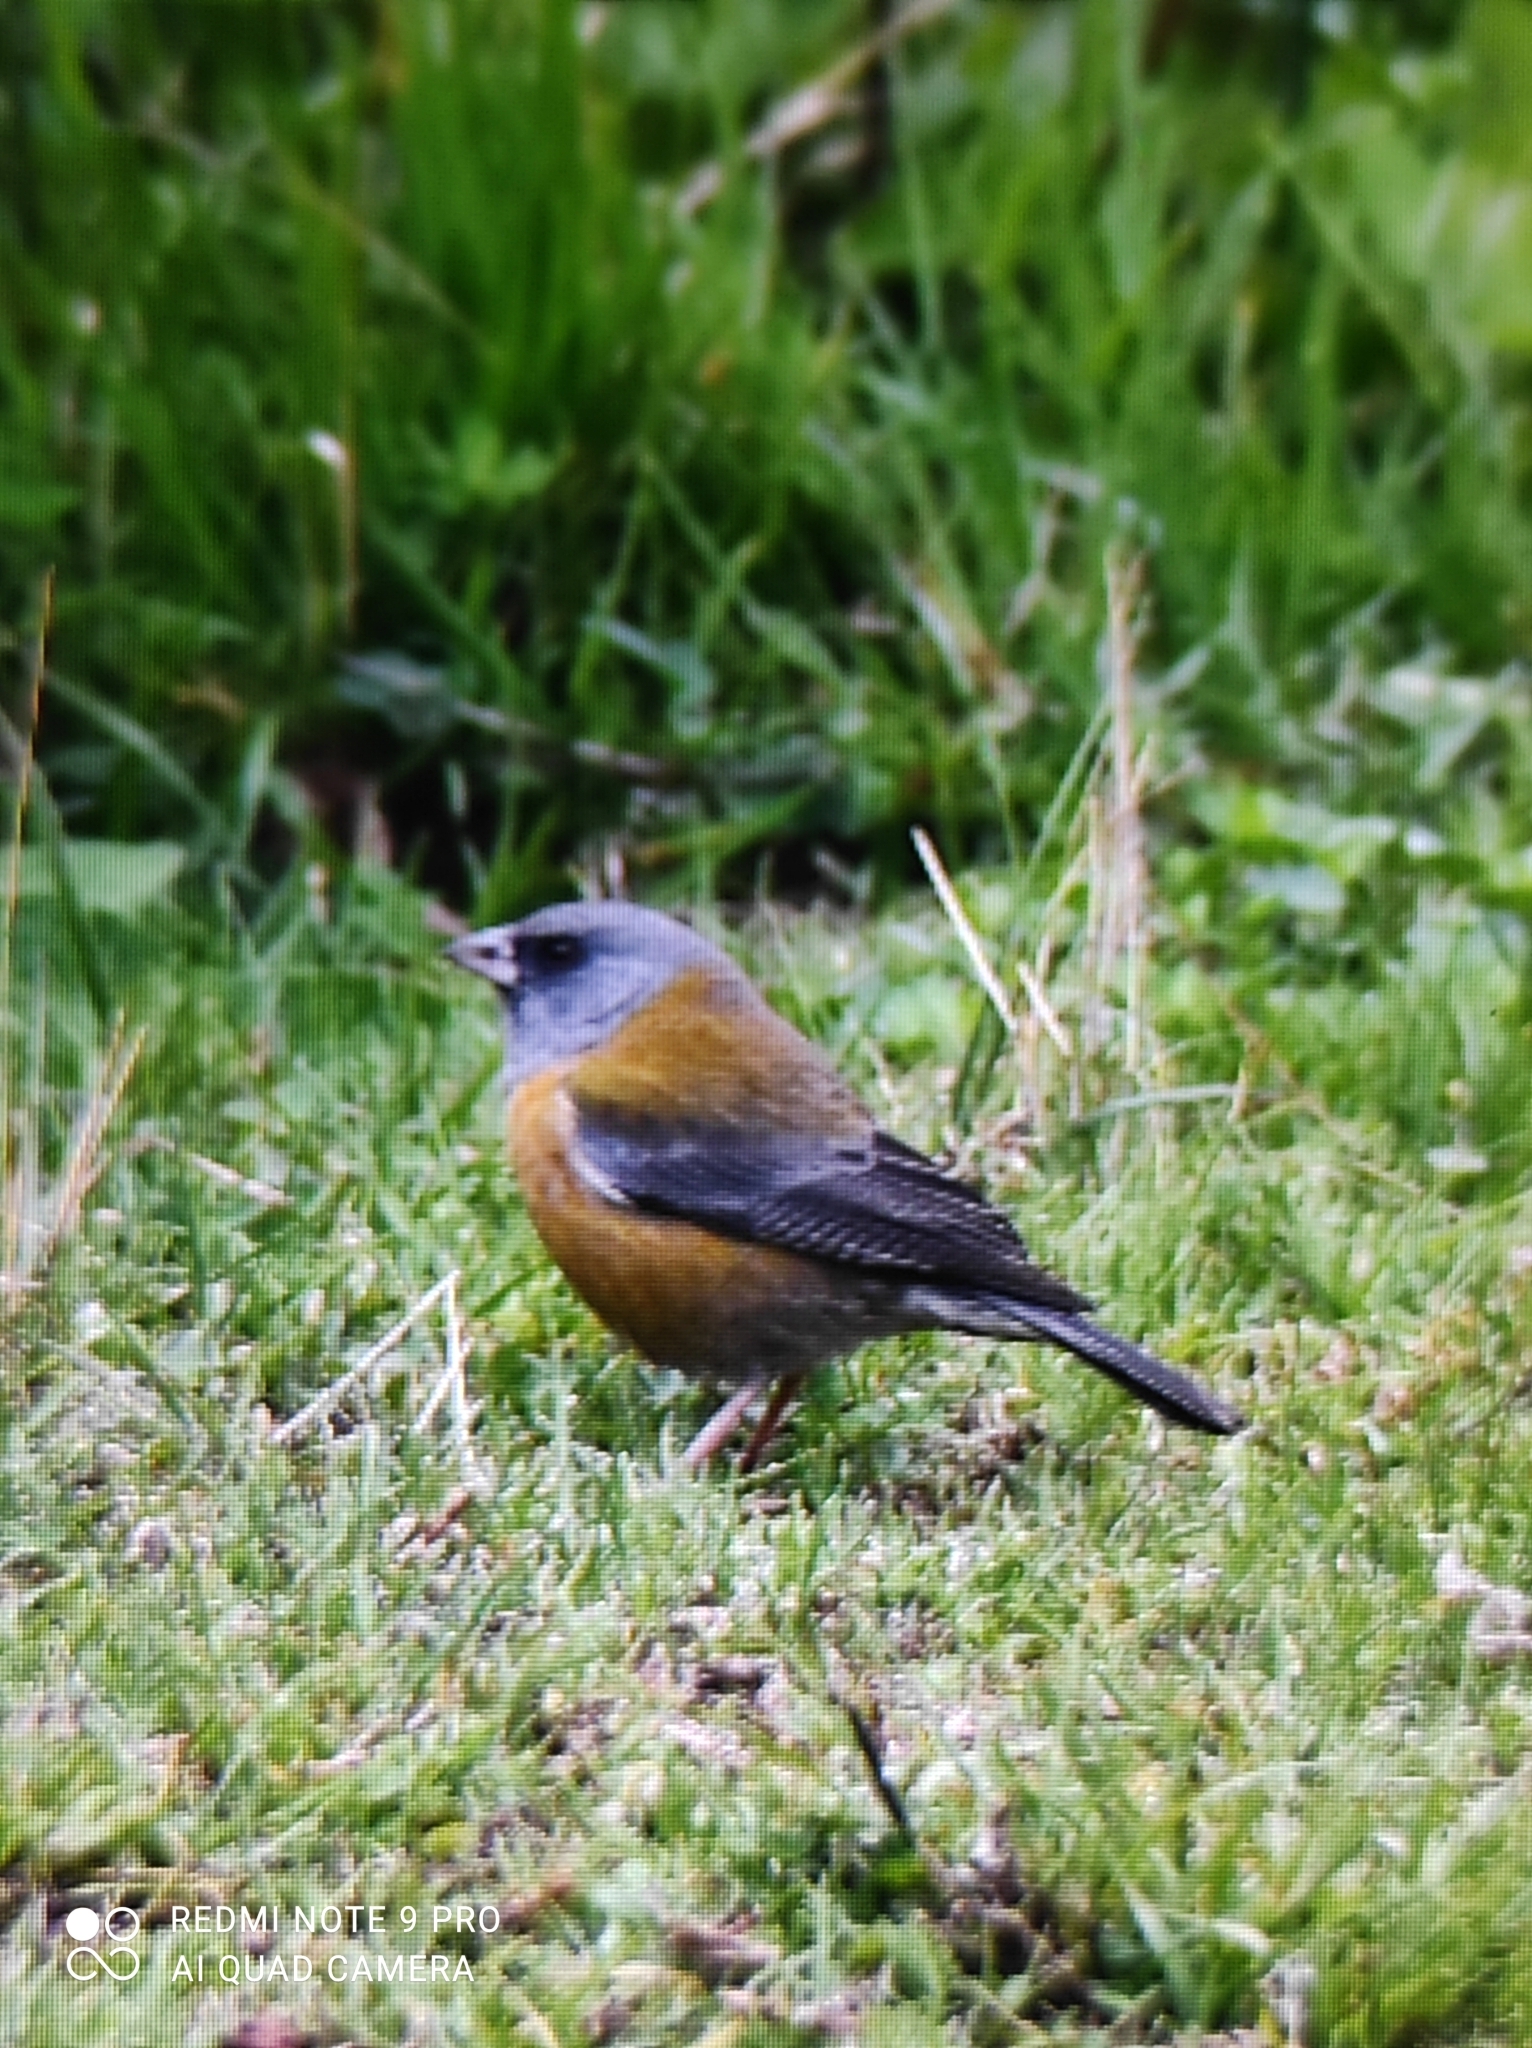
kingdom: Animalia
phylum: Chordata
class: Aves
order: Passeriformes
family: Thraupidae
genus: Phrygilus
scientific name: Phrygilus punensis
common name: Peruvian sierra finch
